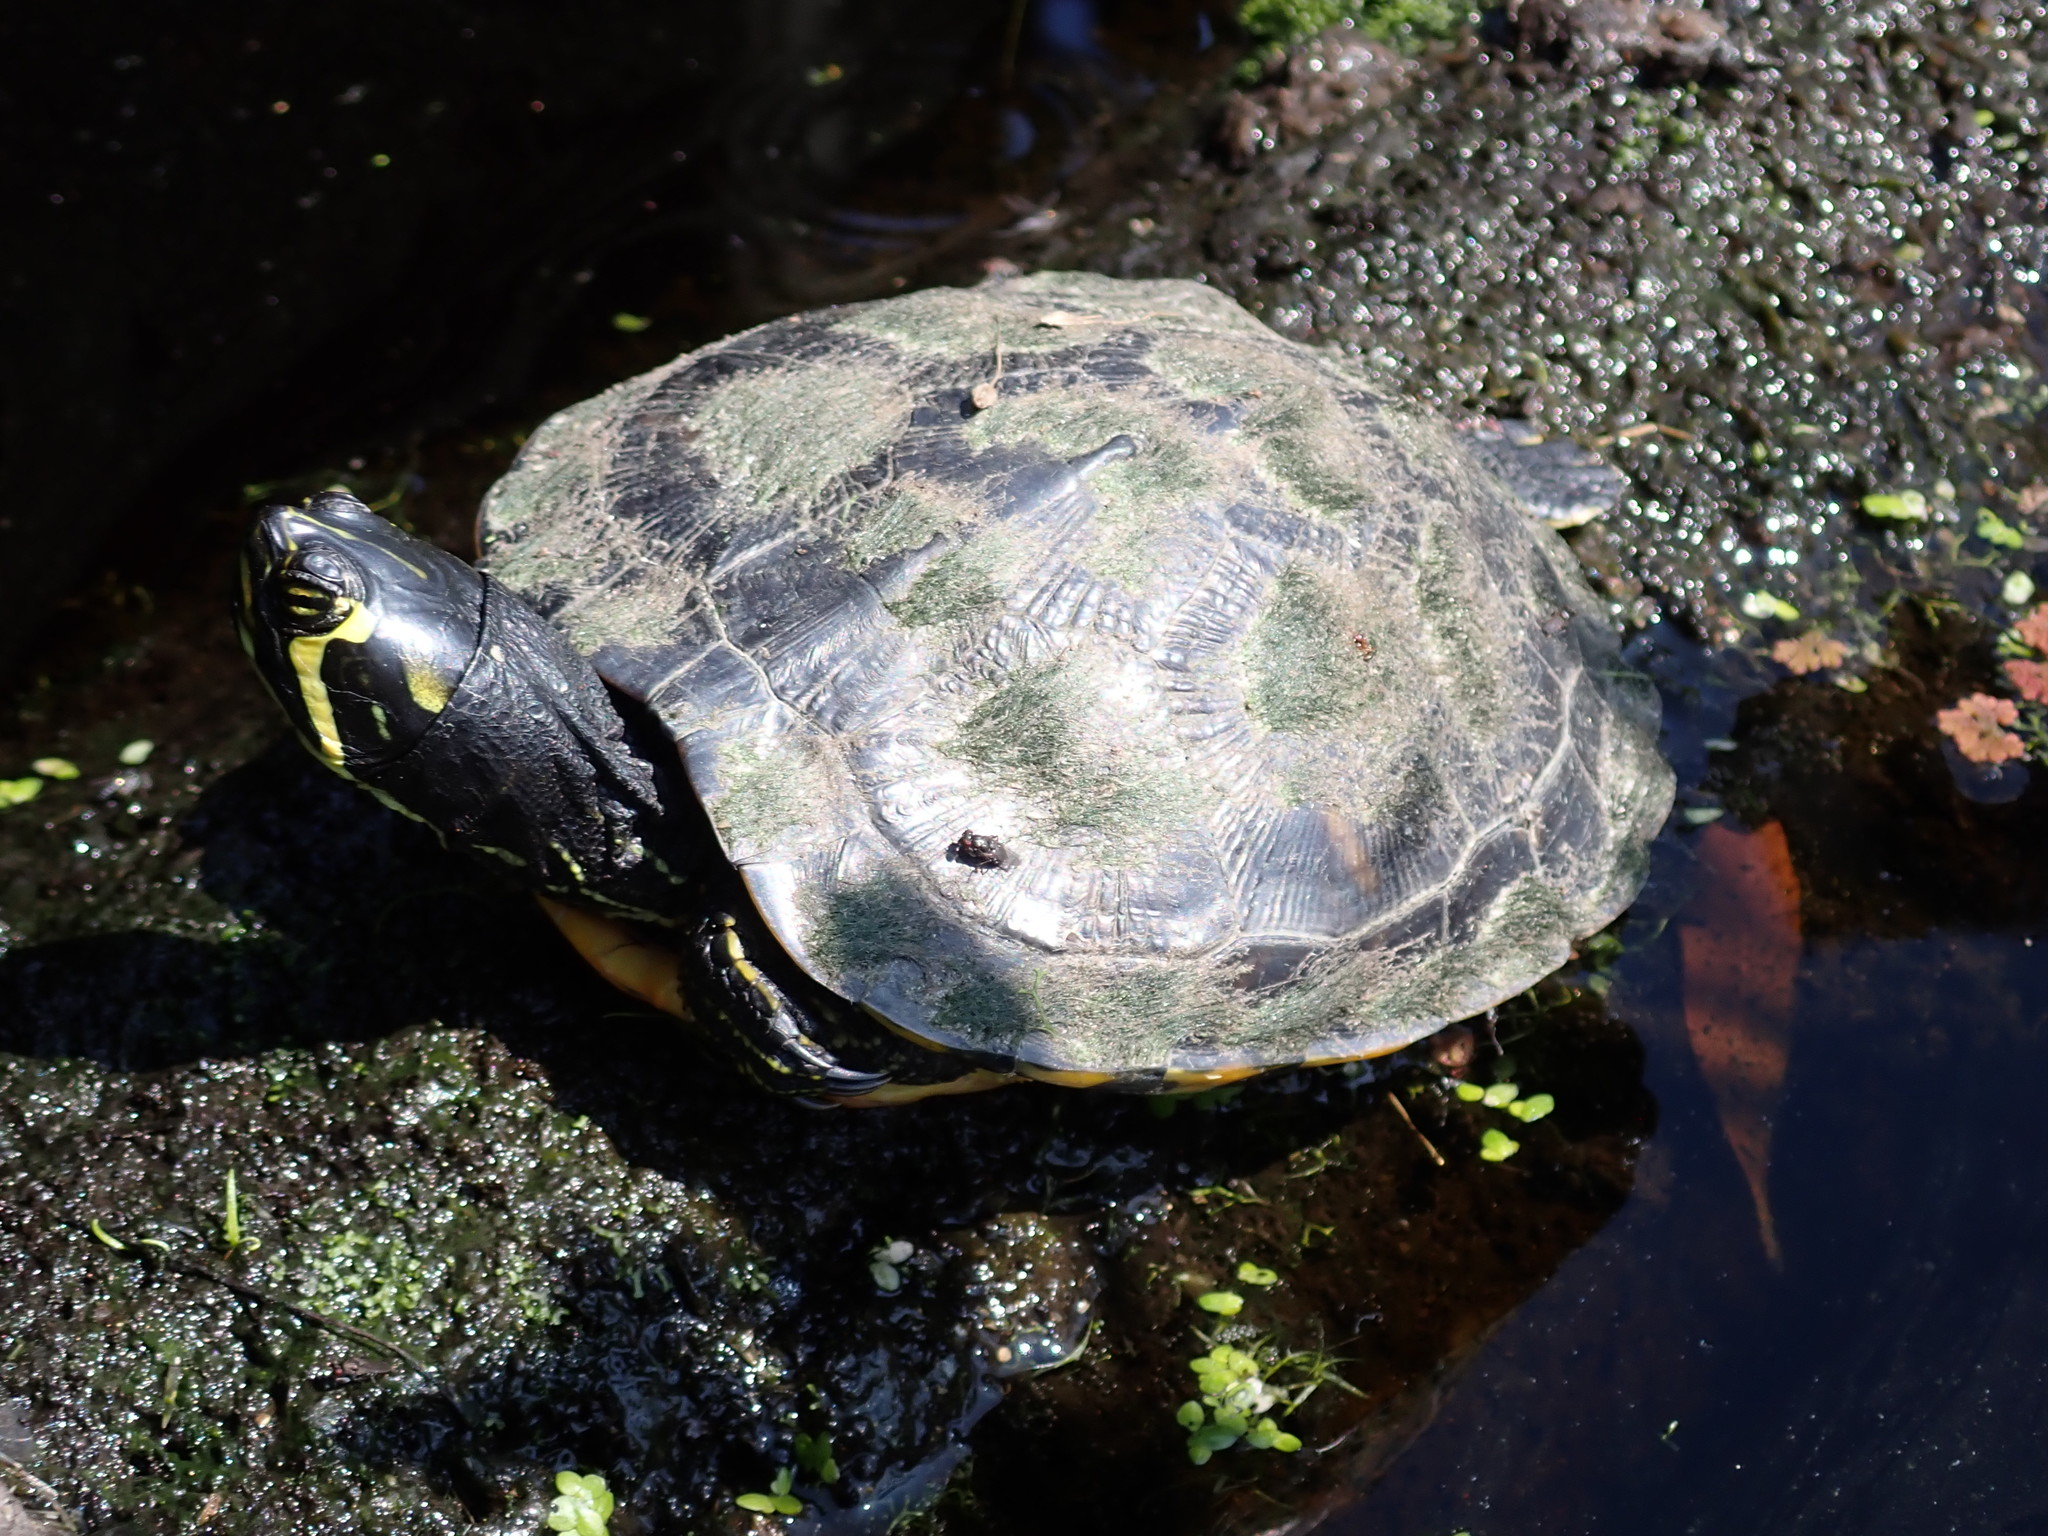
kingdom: Animalia
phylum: Chordata
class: Testudines
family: Emydidae
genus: Trachemys
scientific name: Trachemys scripta
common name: Slider
